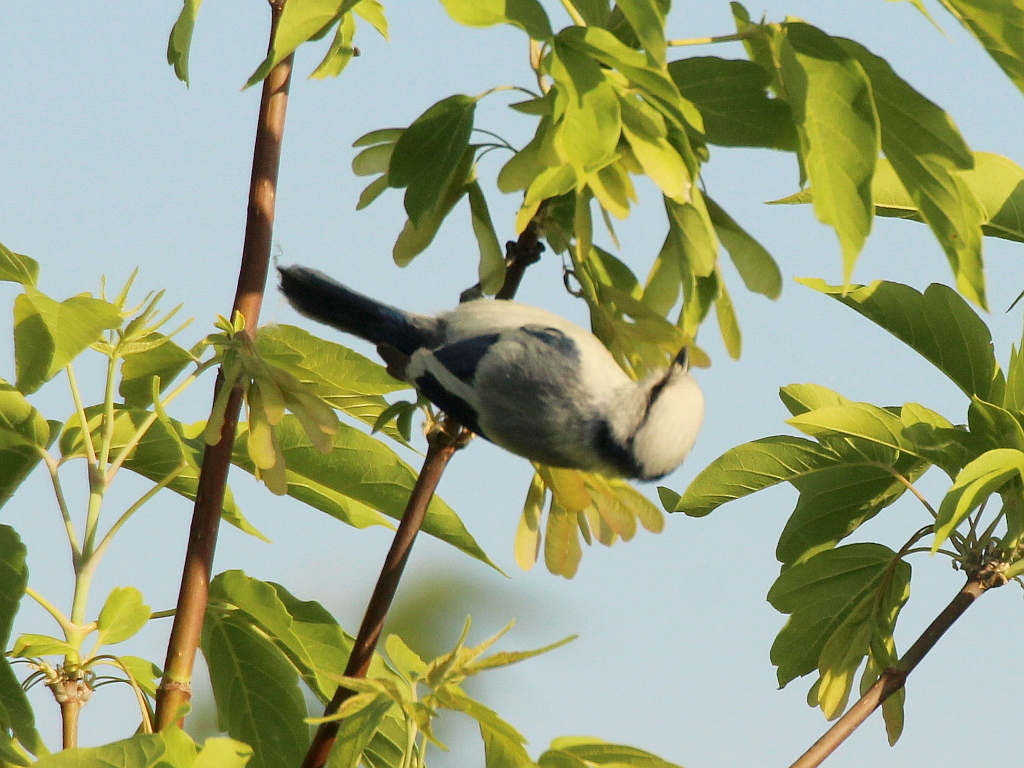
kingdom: Animalia
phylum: Chordata
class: Aves
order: Passeriformes
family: Paridae
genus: Cyanistes
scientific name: Cyanistes cyanus
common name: Azure tit
